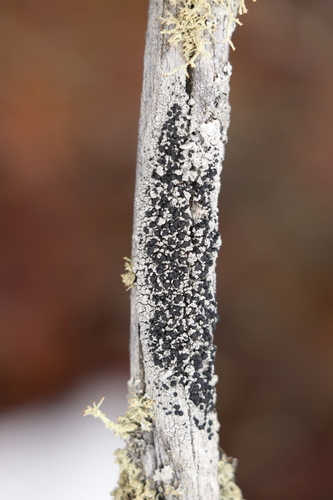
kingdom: Fungi
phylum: Ascomycota
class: Lecanoromycetes
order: Lecanorales
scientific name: Lecanorales
